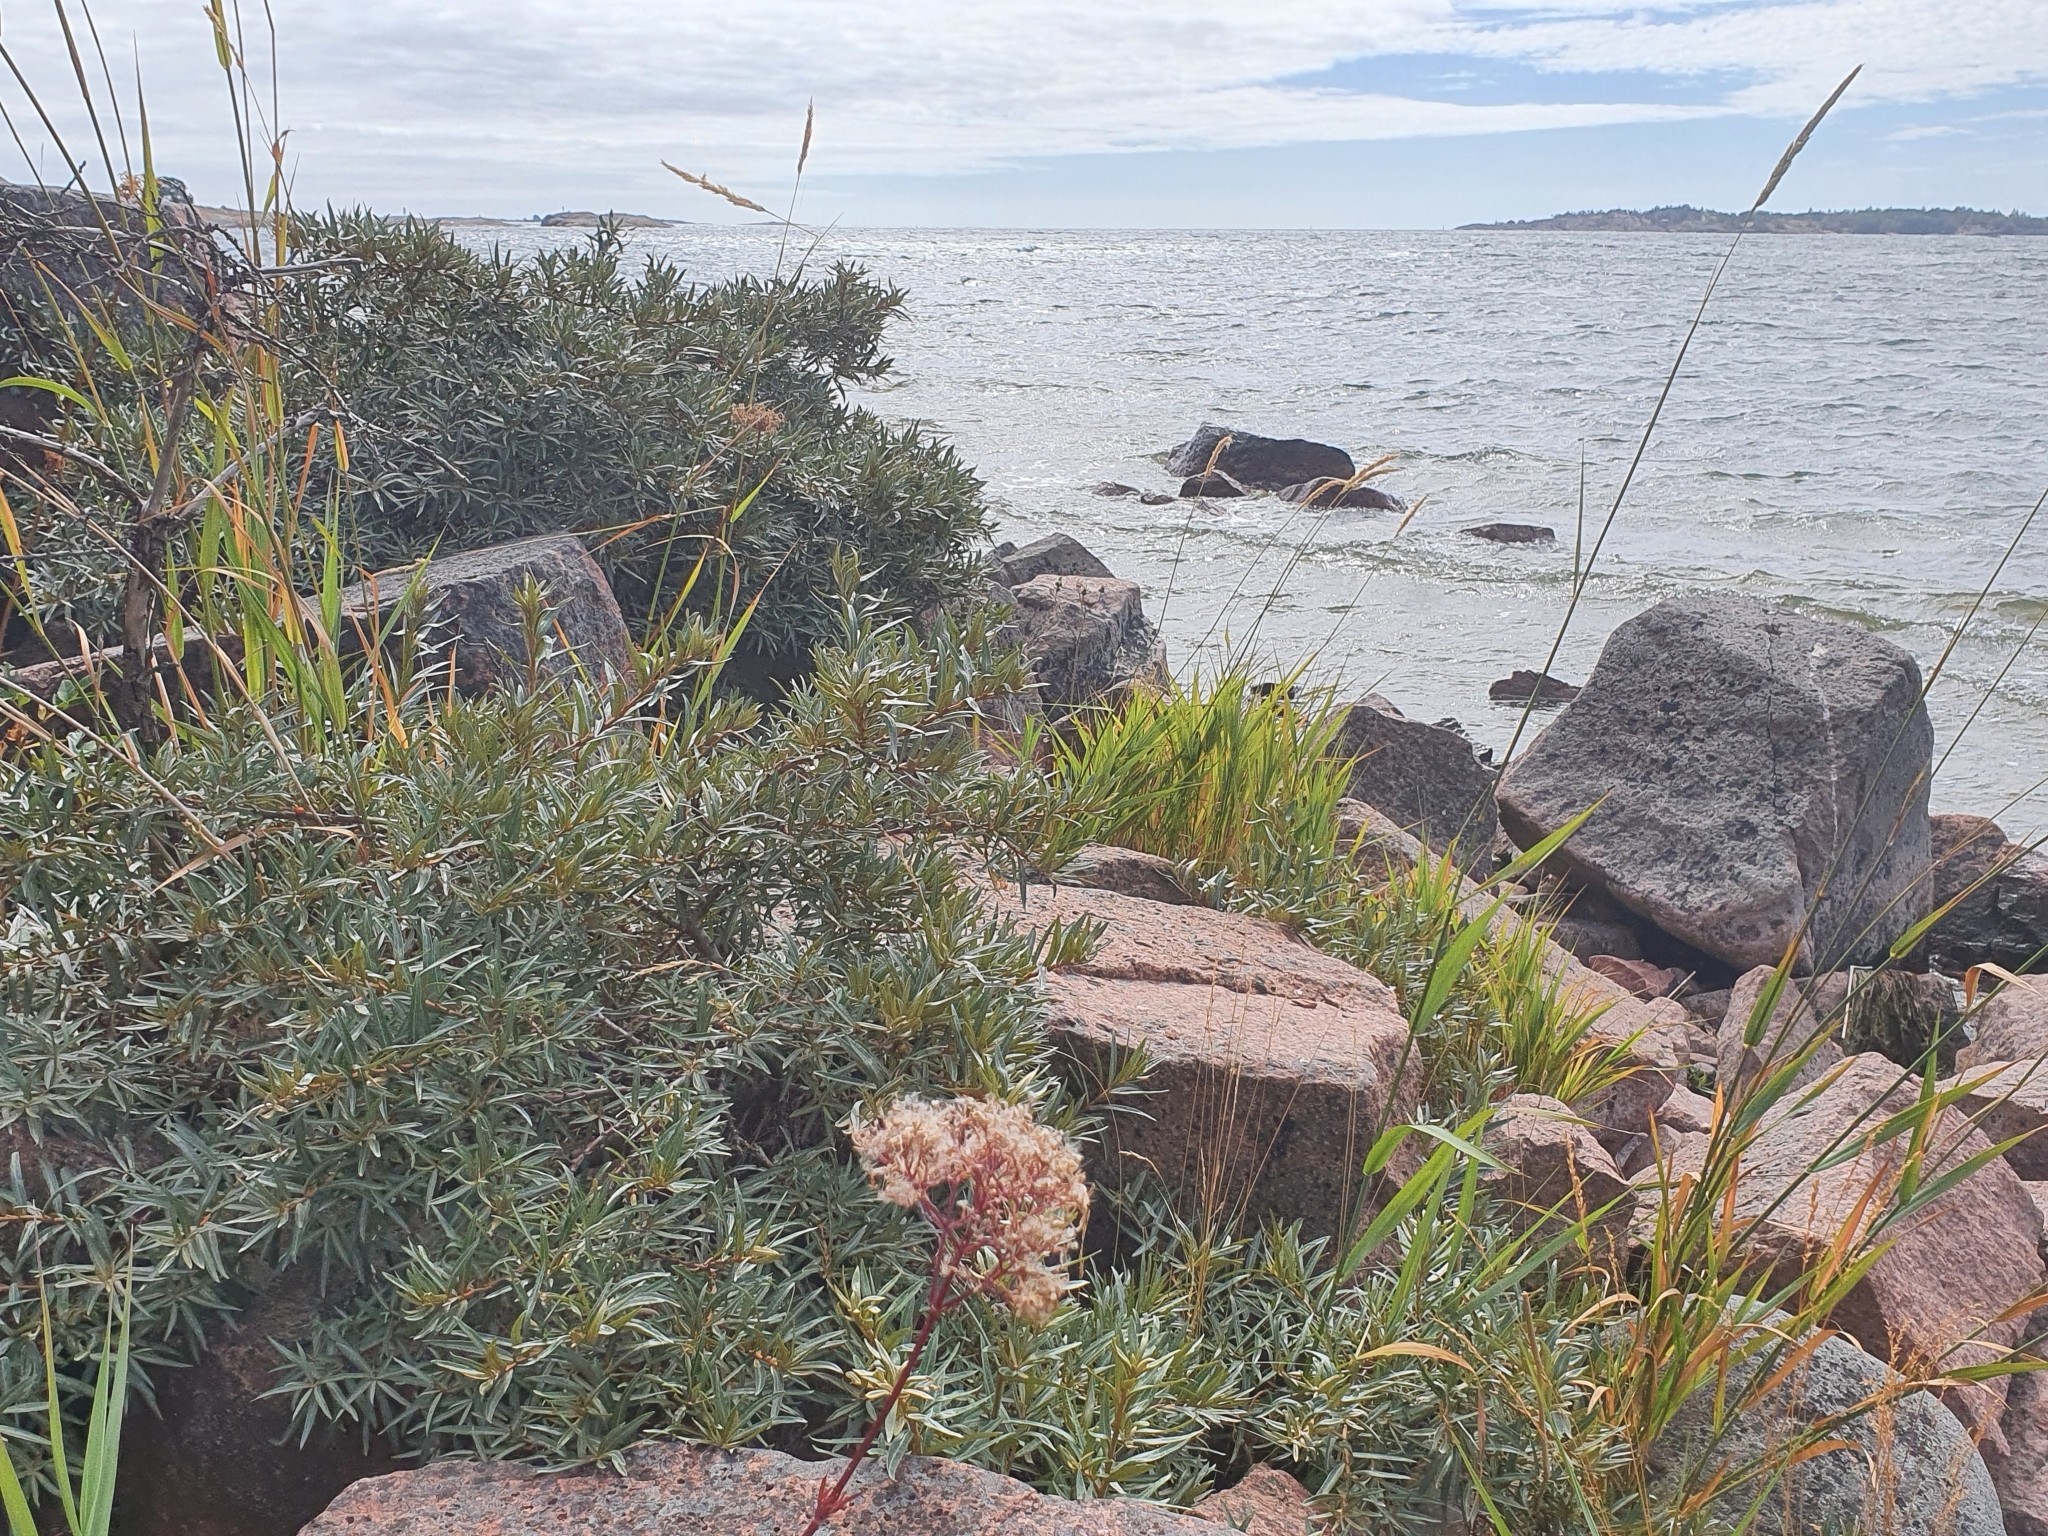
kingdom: Plantae
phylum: Tracheophyta
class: Magnoliopsida
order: Rosales
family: Elaeagnaceae
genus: Hippophae
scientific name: Hippophae rhamnoides
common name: Sea-buckthorn
